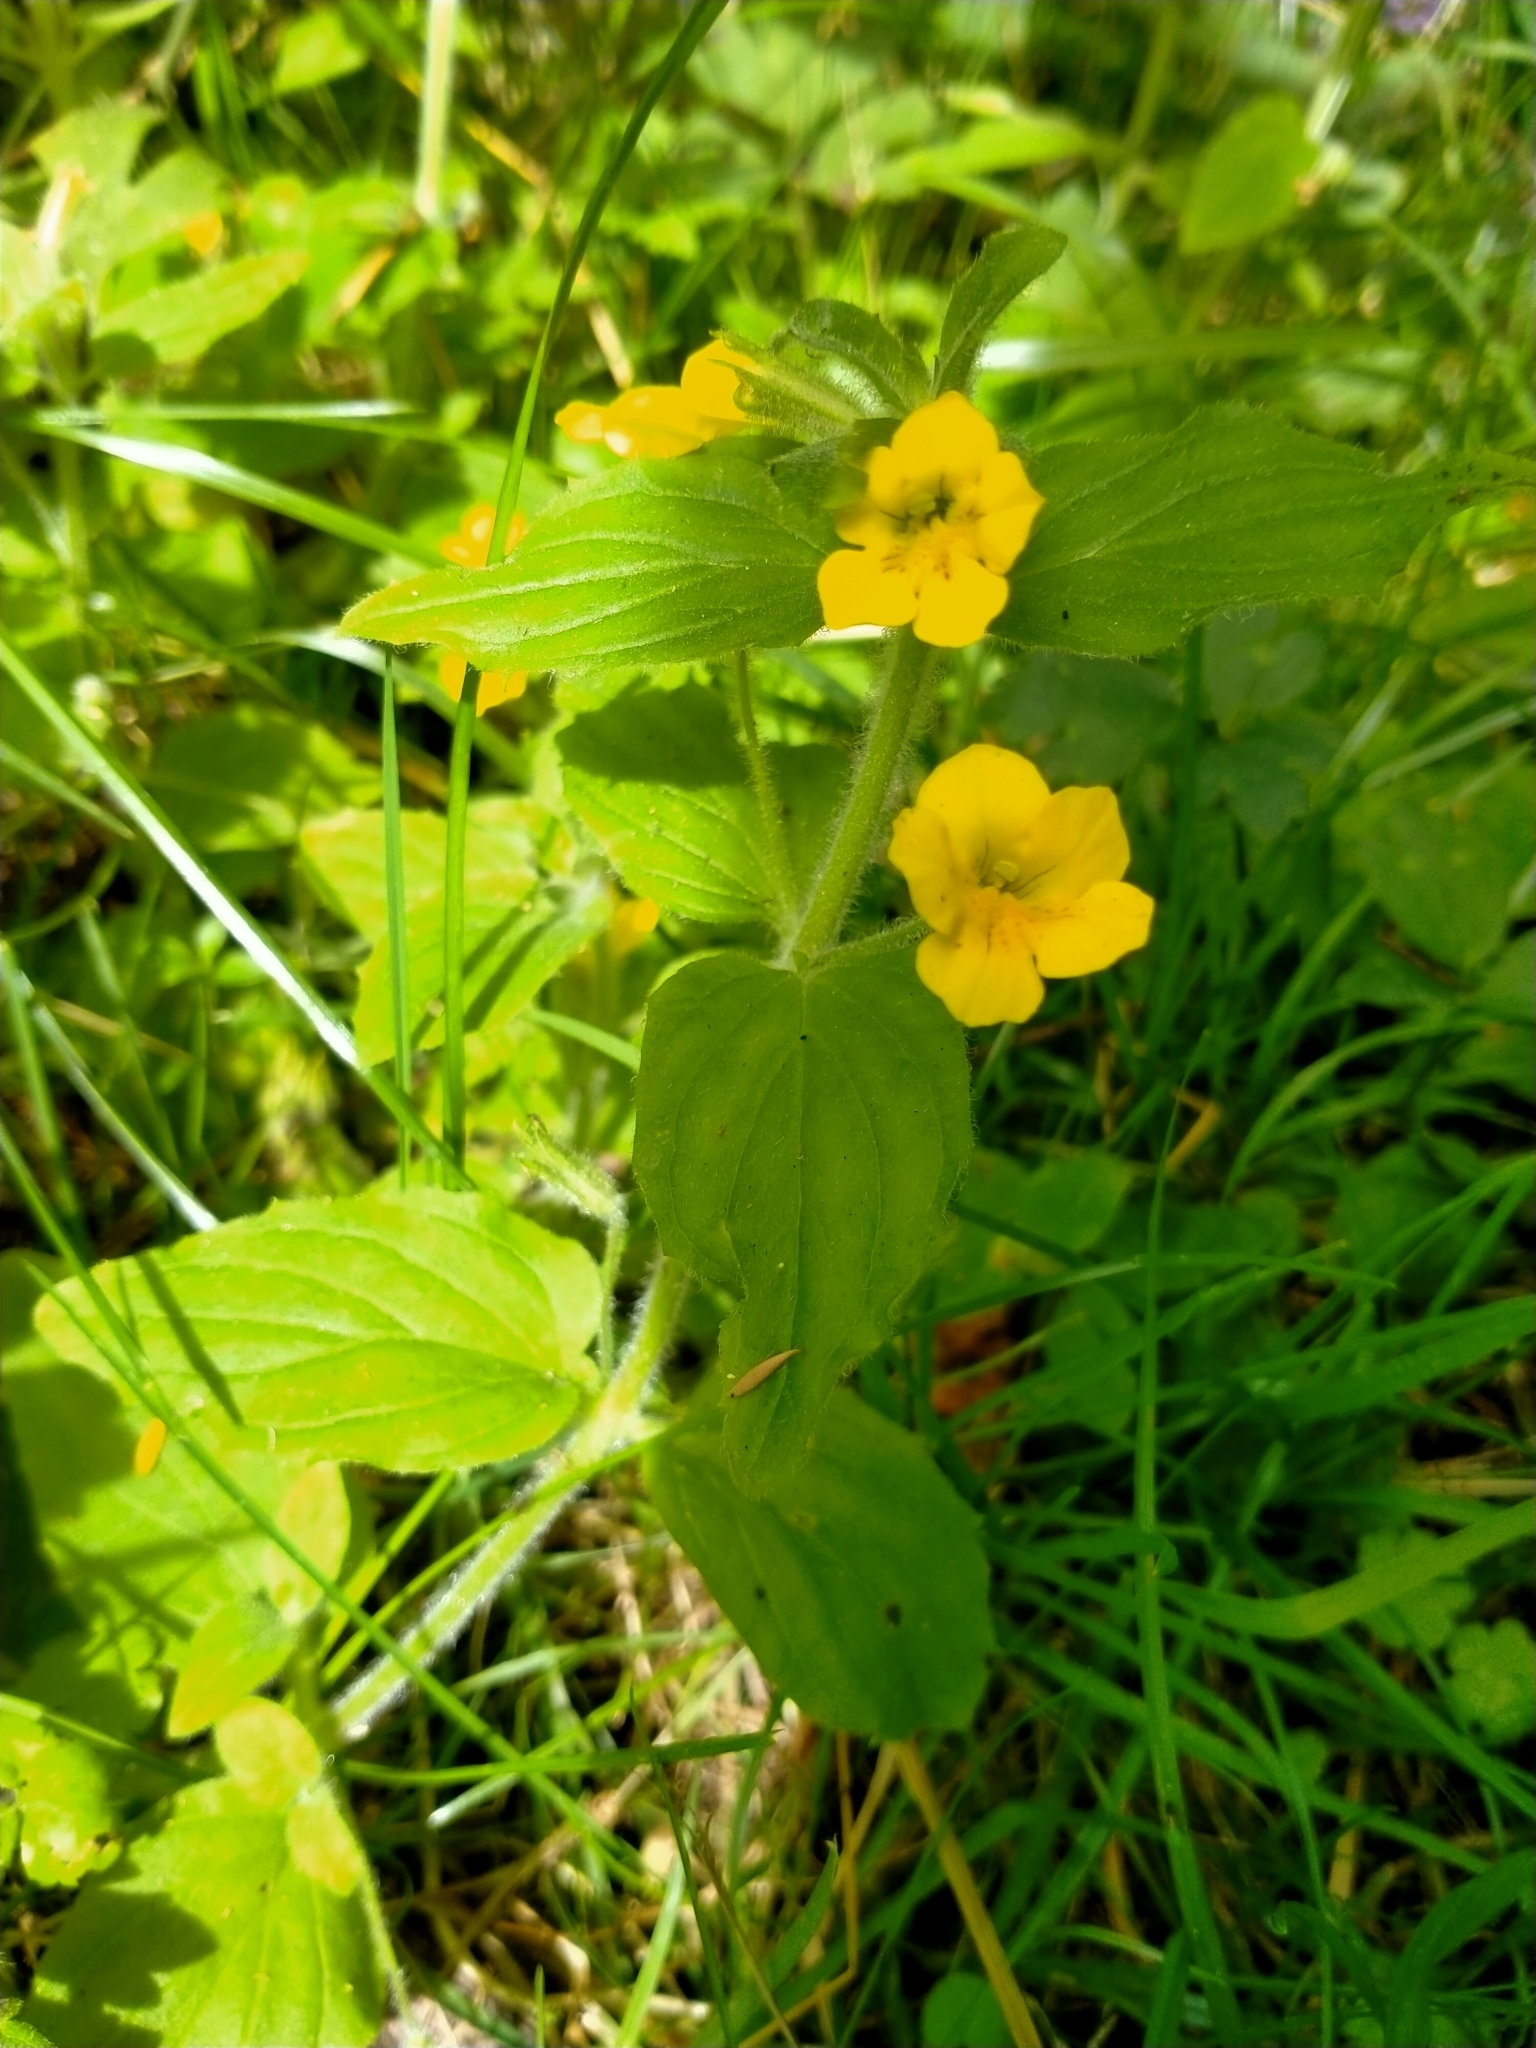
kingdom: Plantae
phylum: Tracheophyta
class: Magnoliopsida
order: Lamiales
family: Phrymaceae
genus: Erythranthe
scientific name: Erythranthe moschata
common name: Muskflower
